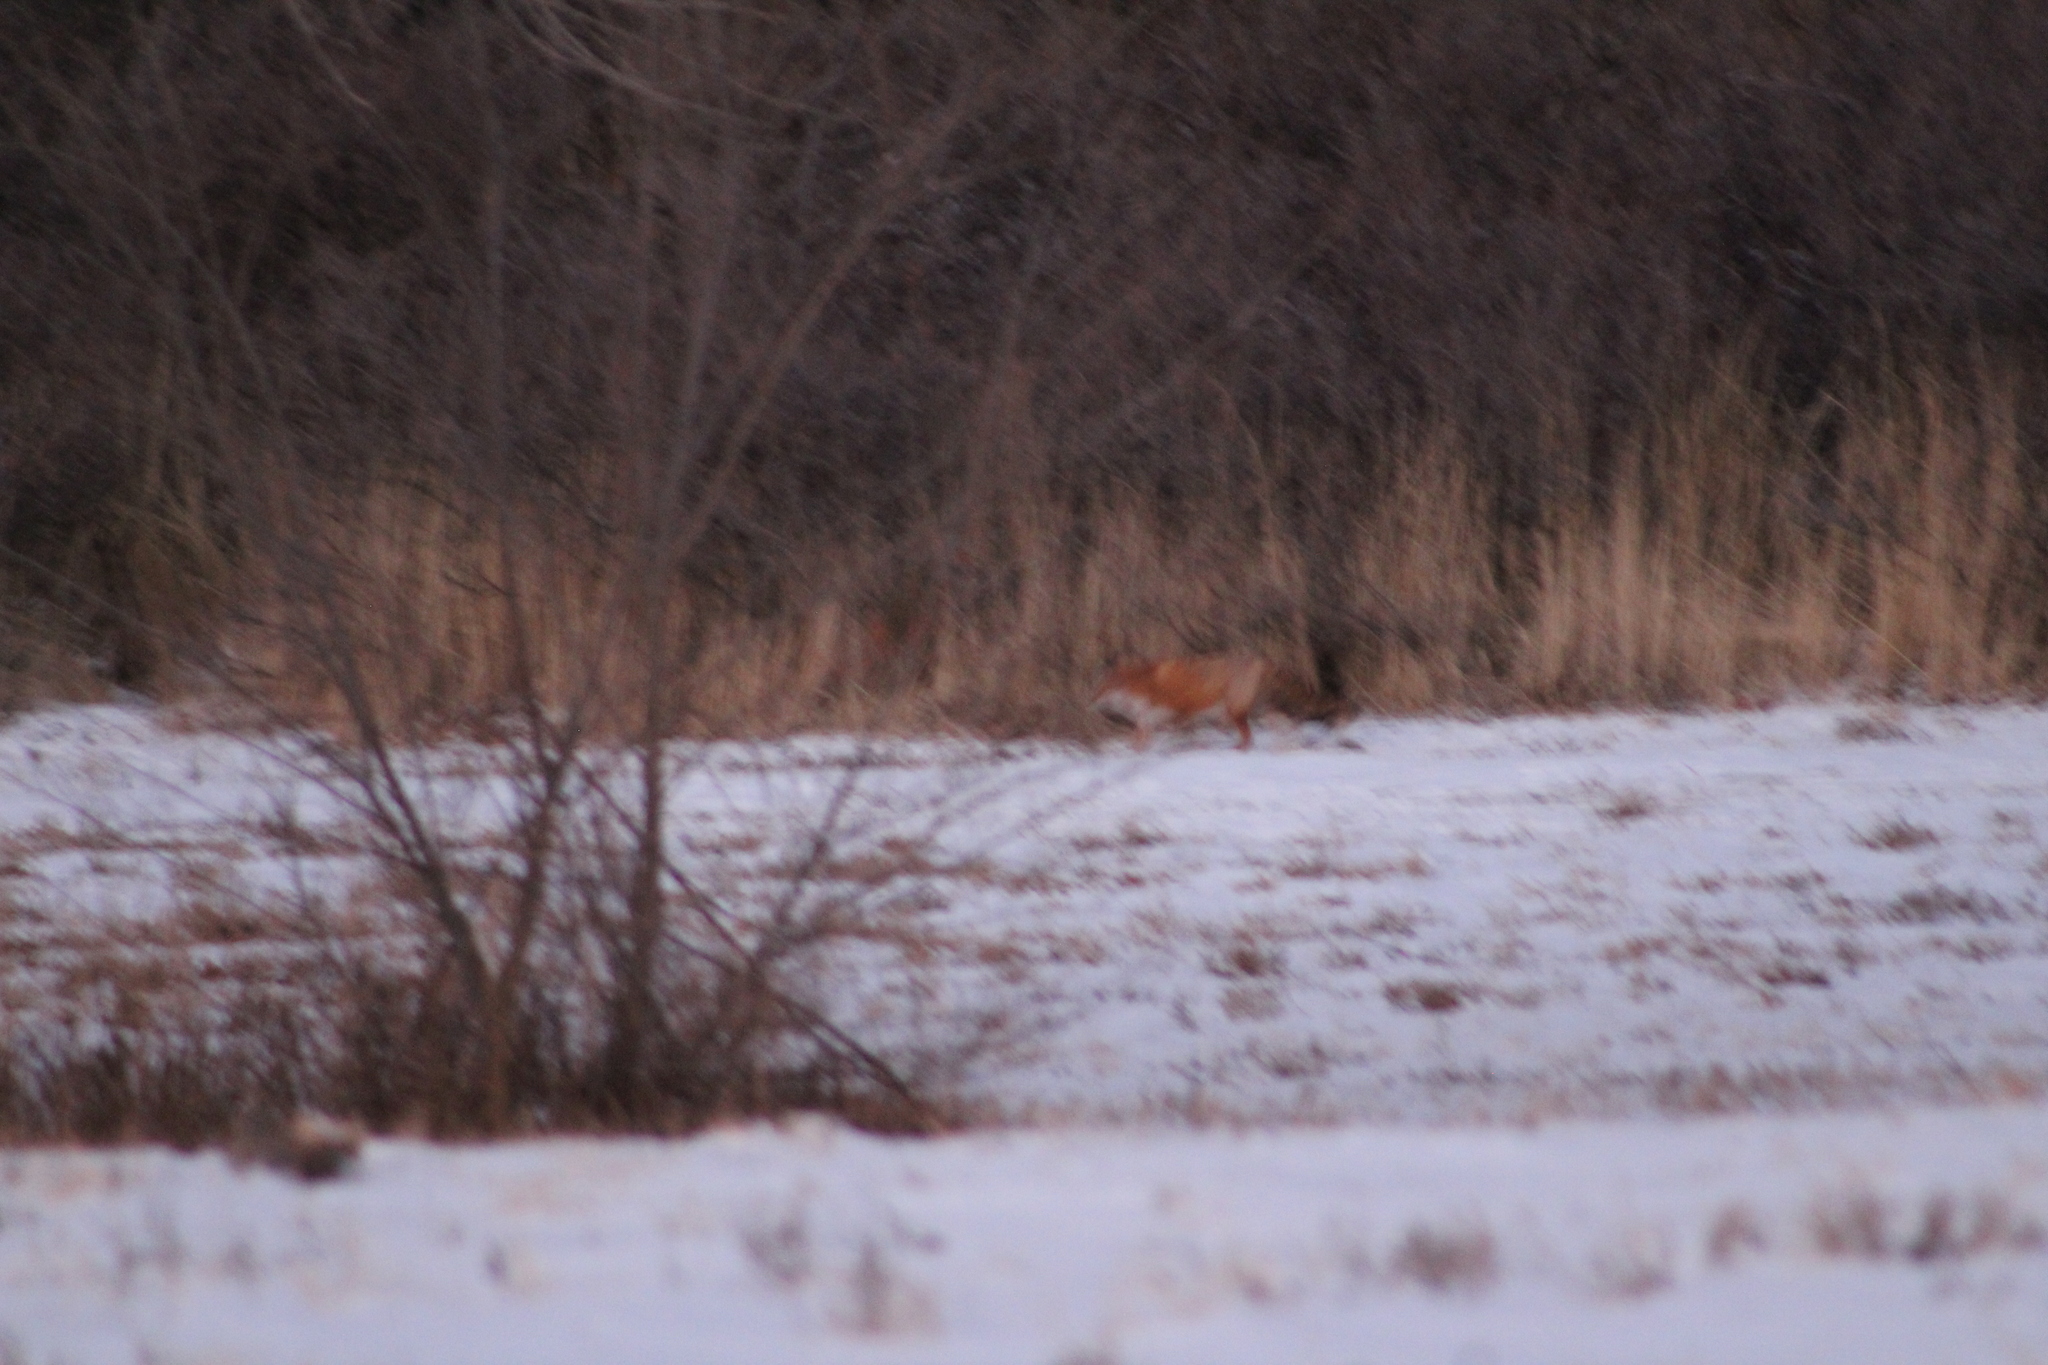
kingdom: Animalia
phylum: Chordata
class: Mammalia
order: Carnivora
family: Canidae
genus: Vulpes
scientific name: Vulpes vulpes
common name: Red fox
